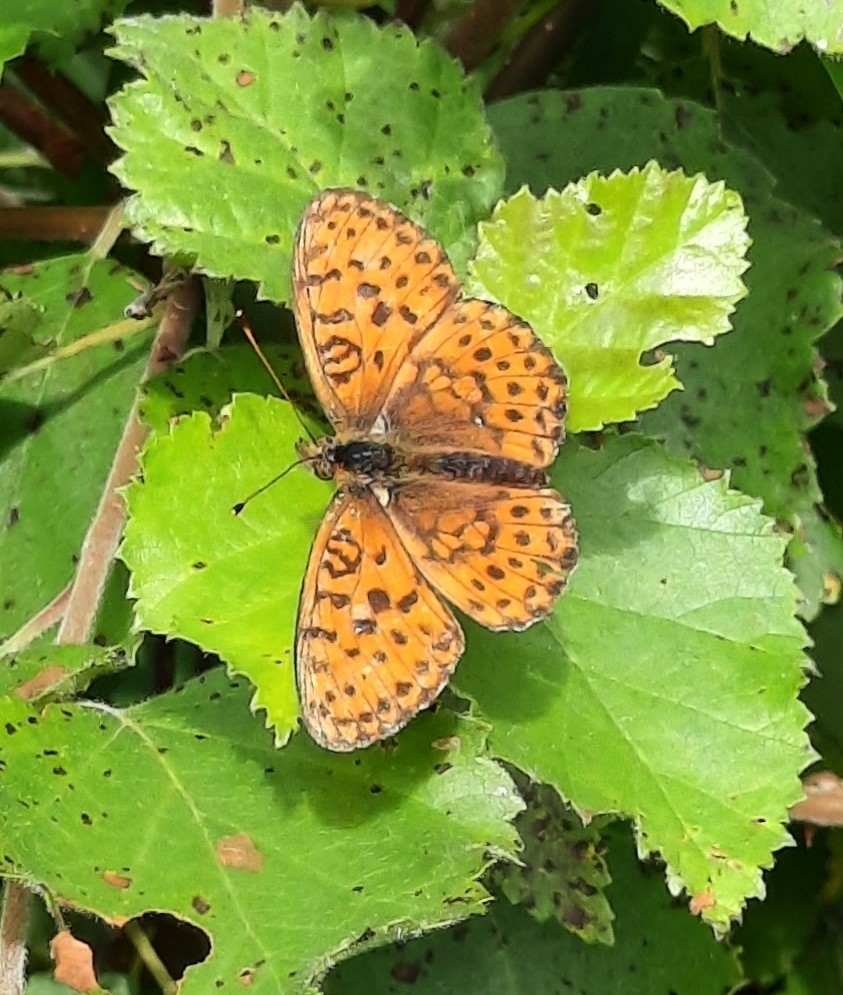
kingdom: Animalia
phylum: Arthropoda
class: Insecta
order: Lepidoptera
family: Nymphalidae
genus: Brenthis
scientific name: Brenthis ino
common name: Lesser marbled fritillary
